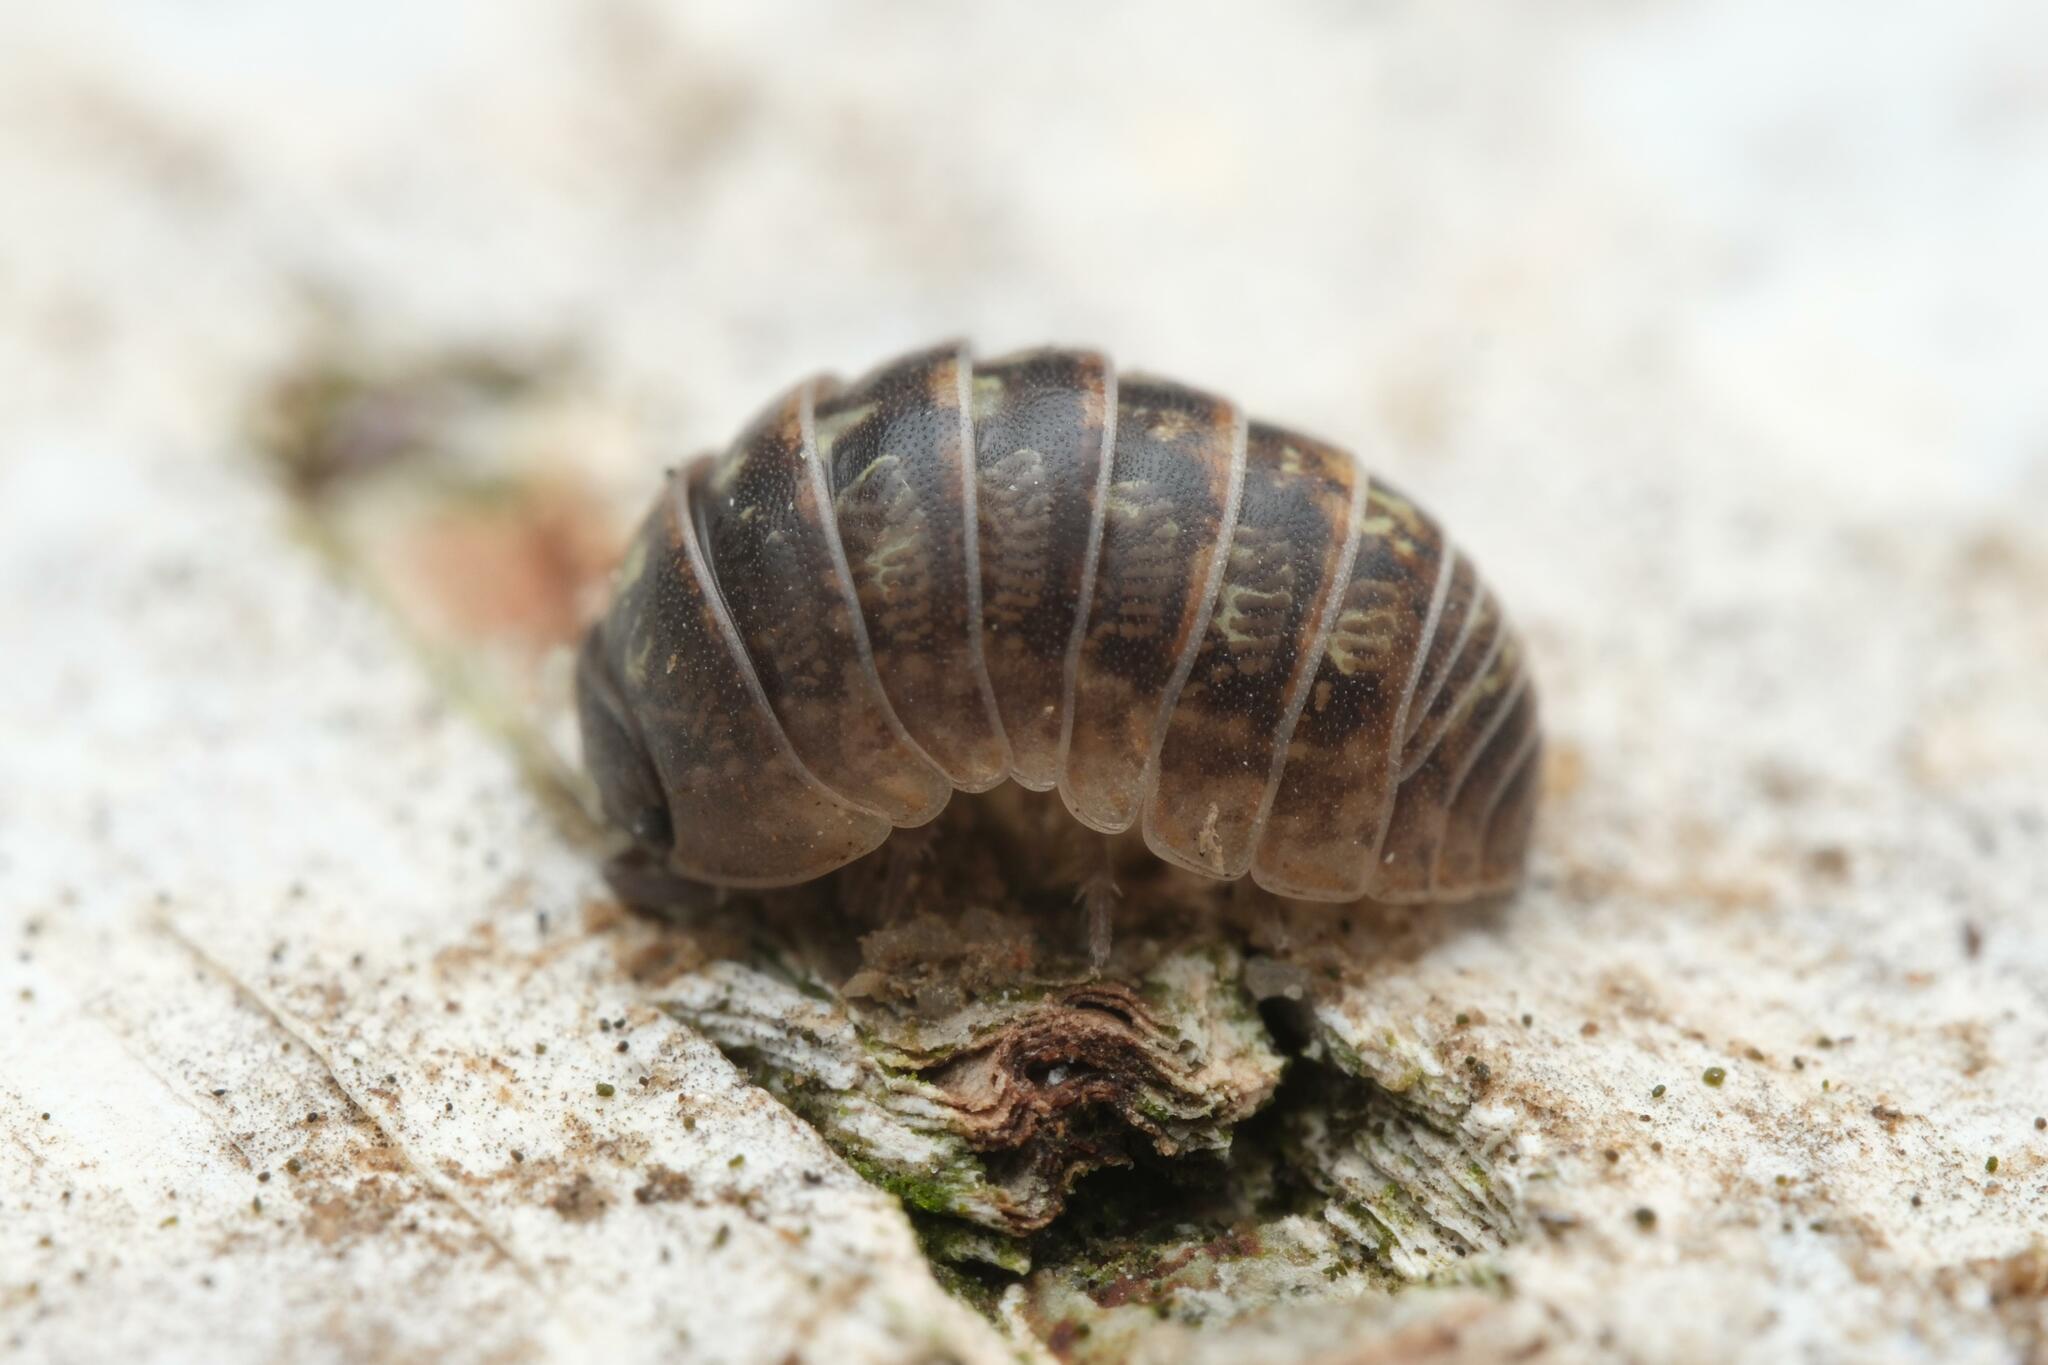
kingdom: Animalia
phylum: Arthropoda
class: Malacostraca
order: Isopoda
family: Armadillidiidae
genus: Armadillidium
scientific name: Armadillidium vulgare
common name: Common pill woodlouse
